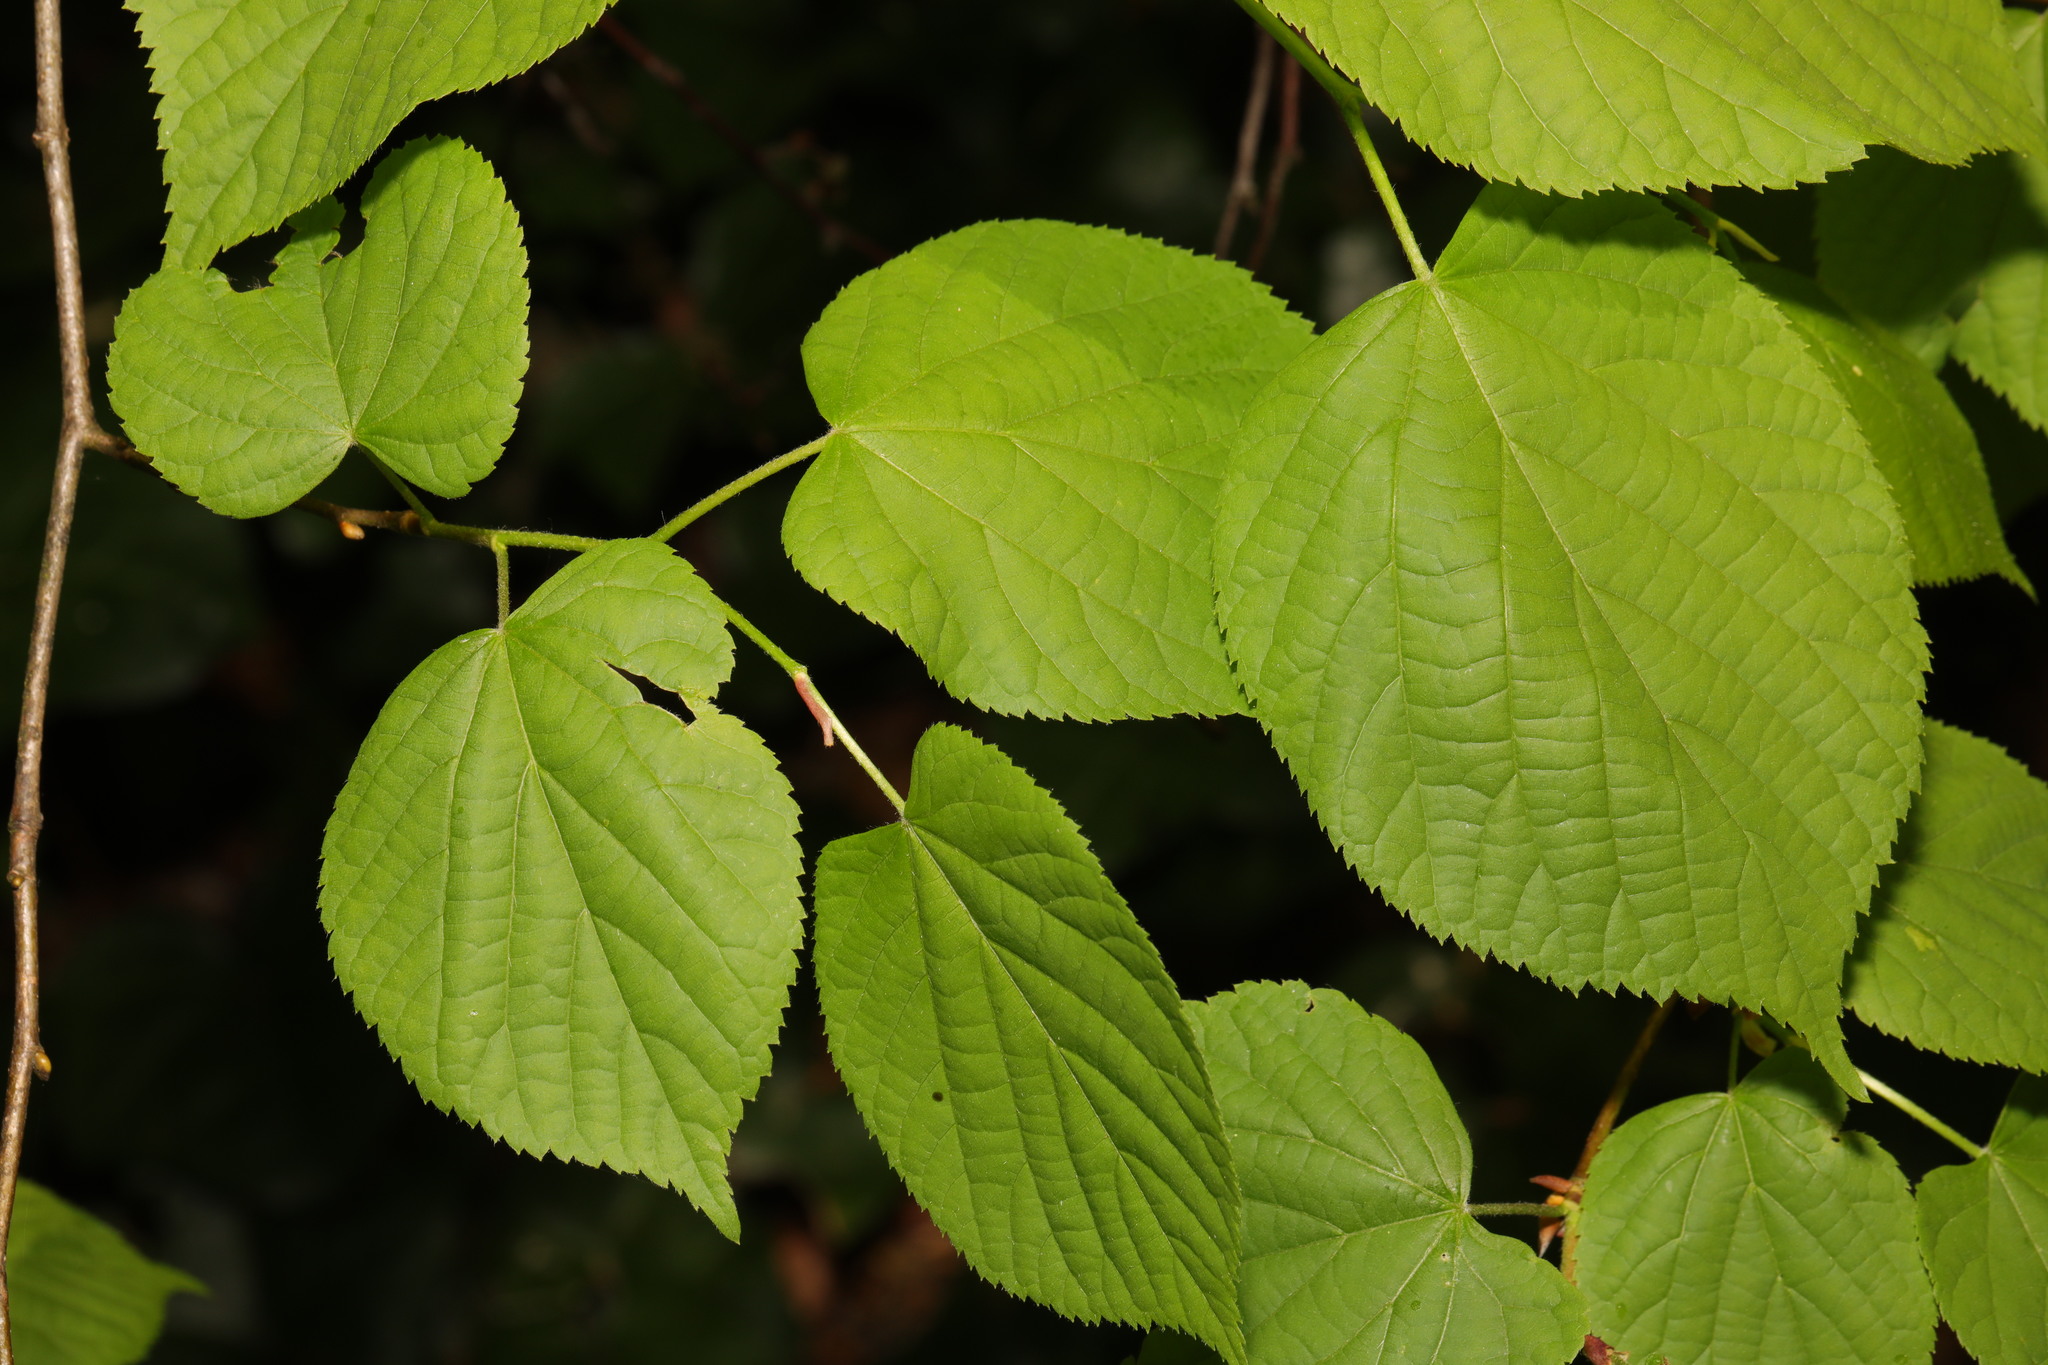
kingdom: Plantae
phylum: Tracheophyta
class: Magnoliopsida
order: Malvales
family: Malvaceae
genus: Tilia
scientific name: Tilia europaea
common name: European linden
